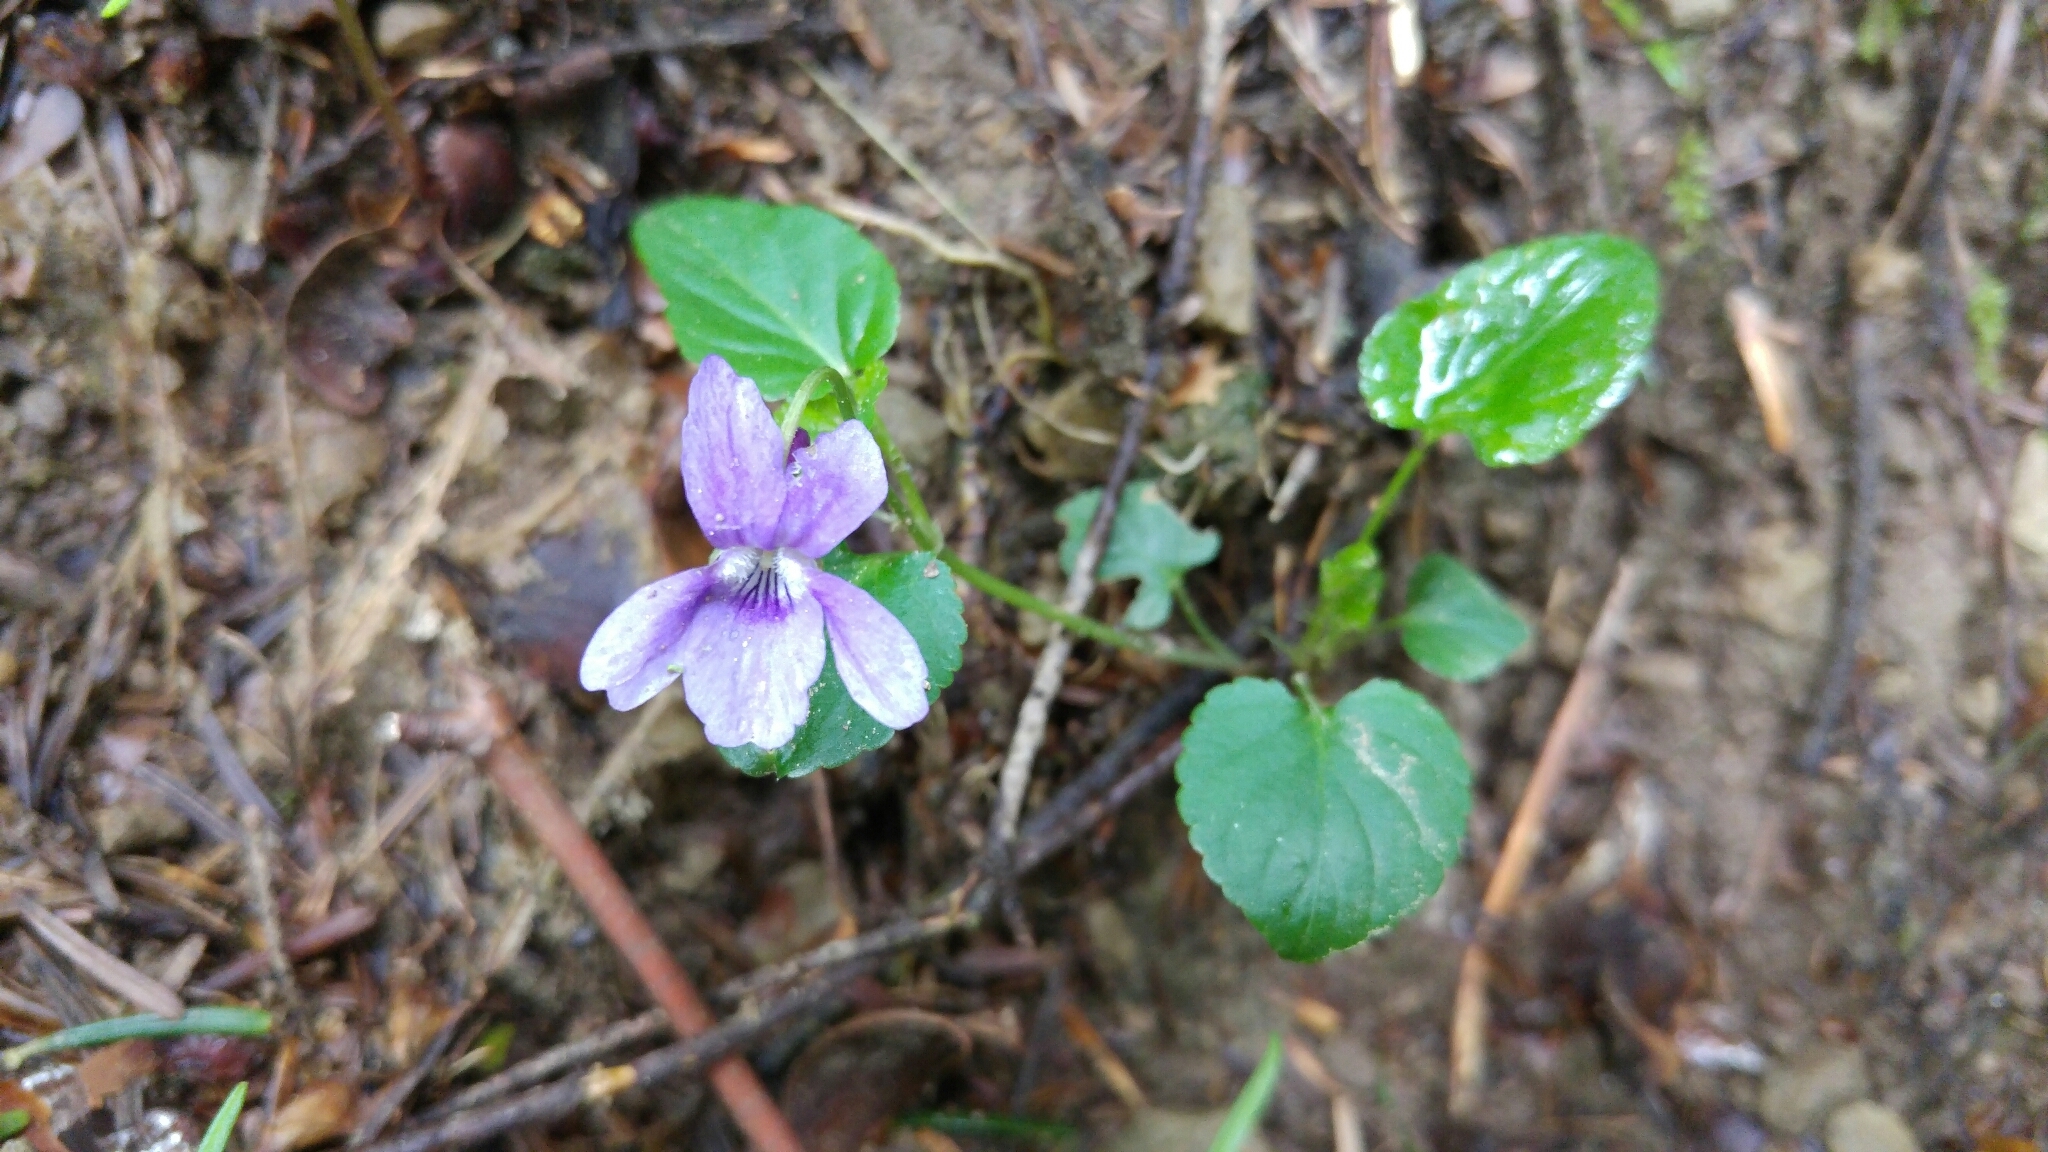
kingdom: Plantae
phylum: Tracheophyta
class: Magnoliopsida
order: Malpighiales
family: Violaceae
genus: Viola
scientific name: Viola reichenbachiana
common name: Early dog-violet
